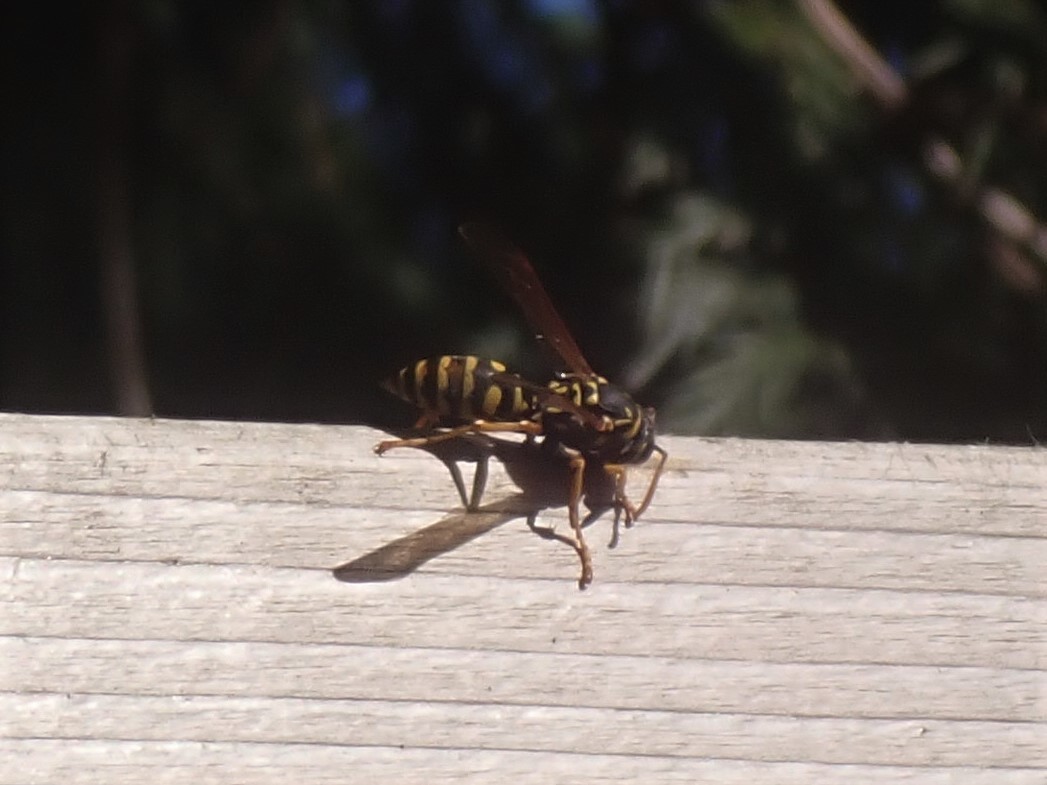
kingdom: Animalia
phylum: Arthropoda
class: Insecta
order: Hymenoptera
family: Eumenidae
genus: Polistes
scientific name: Polistes dominula
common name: Paper wasp
